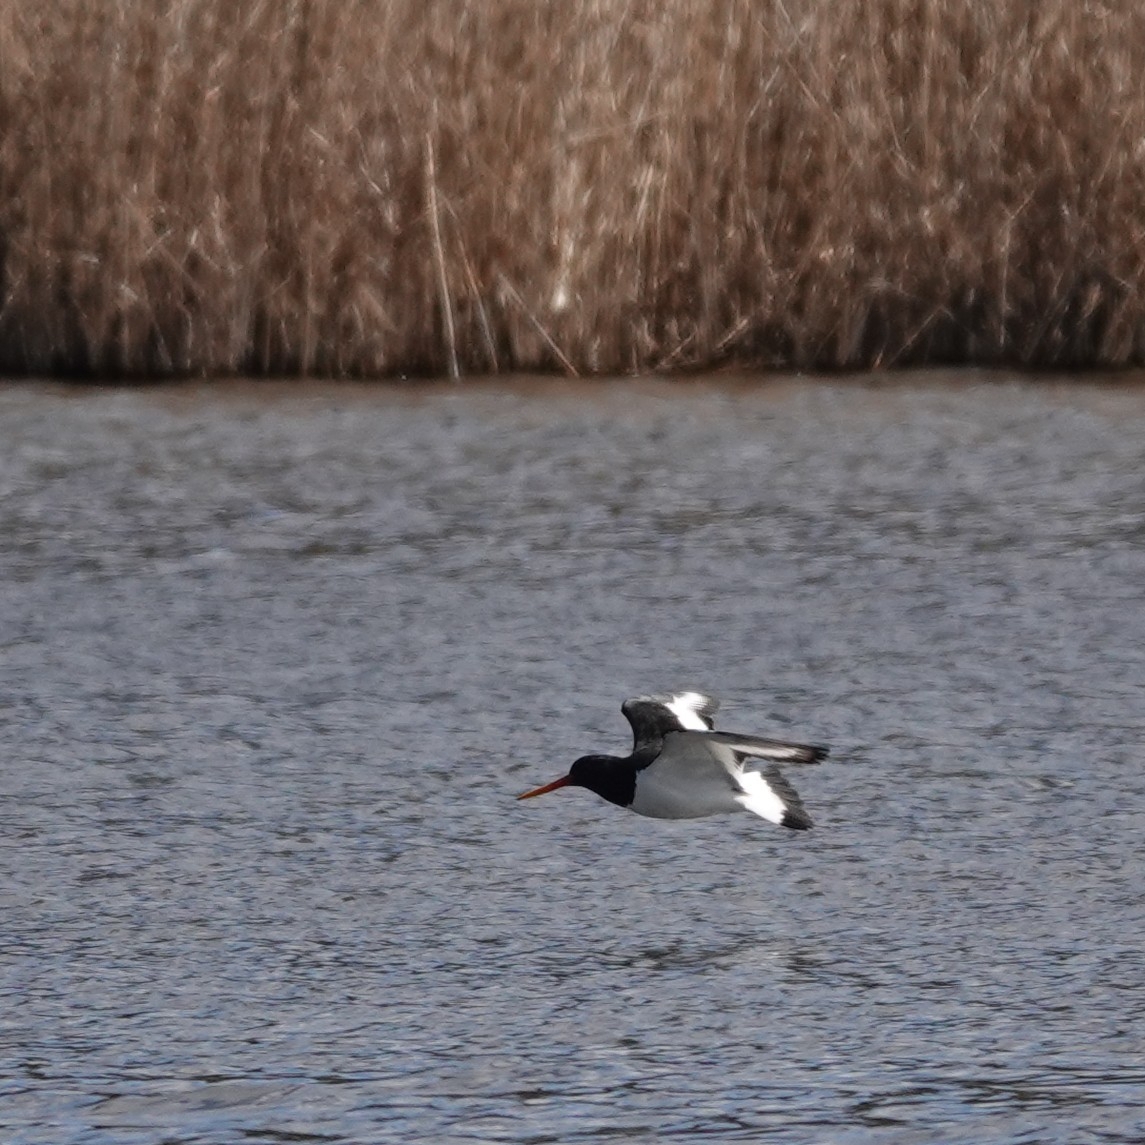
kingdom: Animalia
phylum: Chordata
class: Aves
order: Charadriiformes
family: Haematopodidae
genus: Haematopus
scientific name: Haematopus ostralegus
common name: Eurasian oystercatcher
